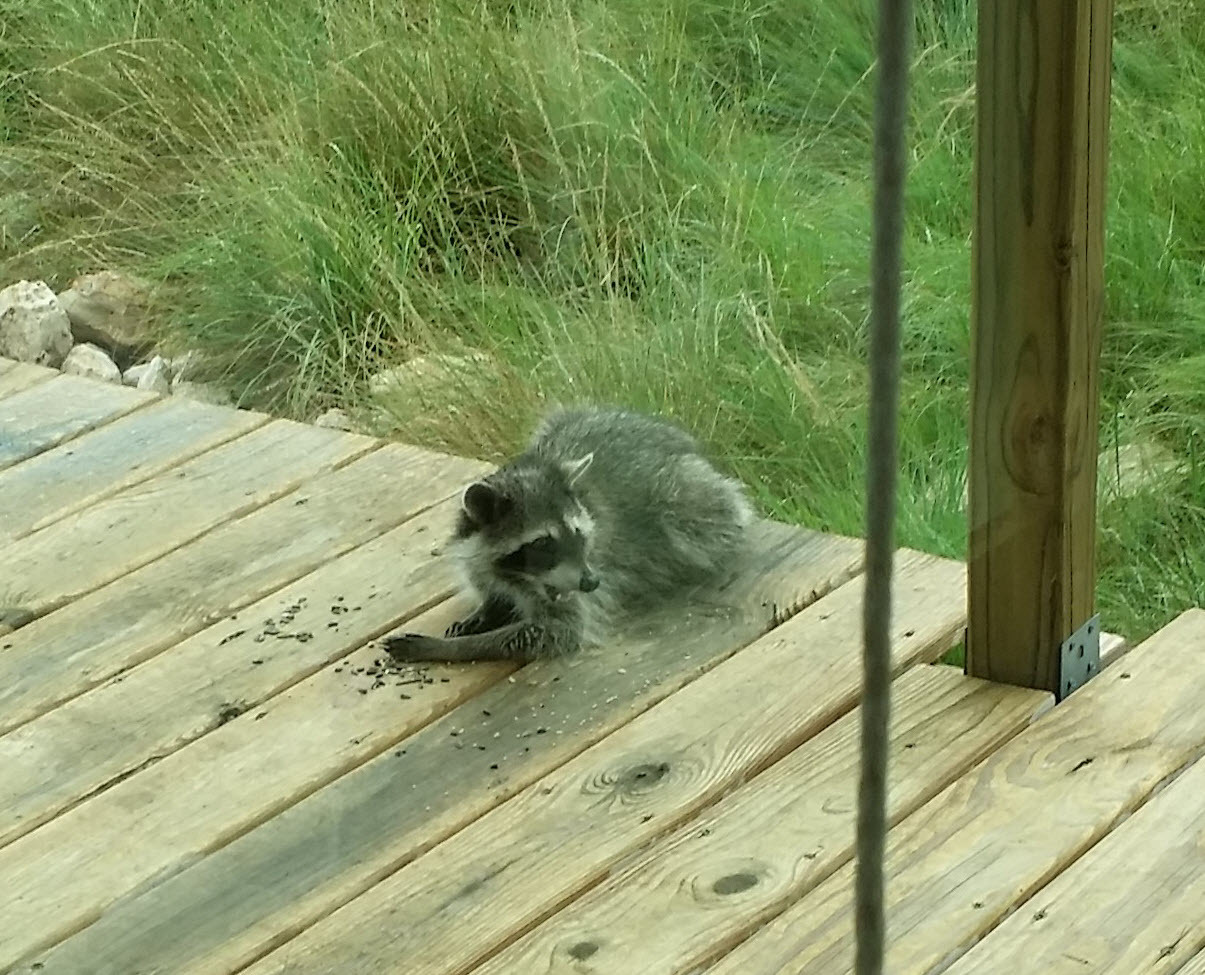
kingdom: Animalia
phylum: Chordata
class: Mammalia
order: Carnivora
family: Procyonidae
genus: Procyon
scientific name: Procyon lotor
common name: Raccoon
